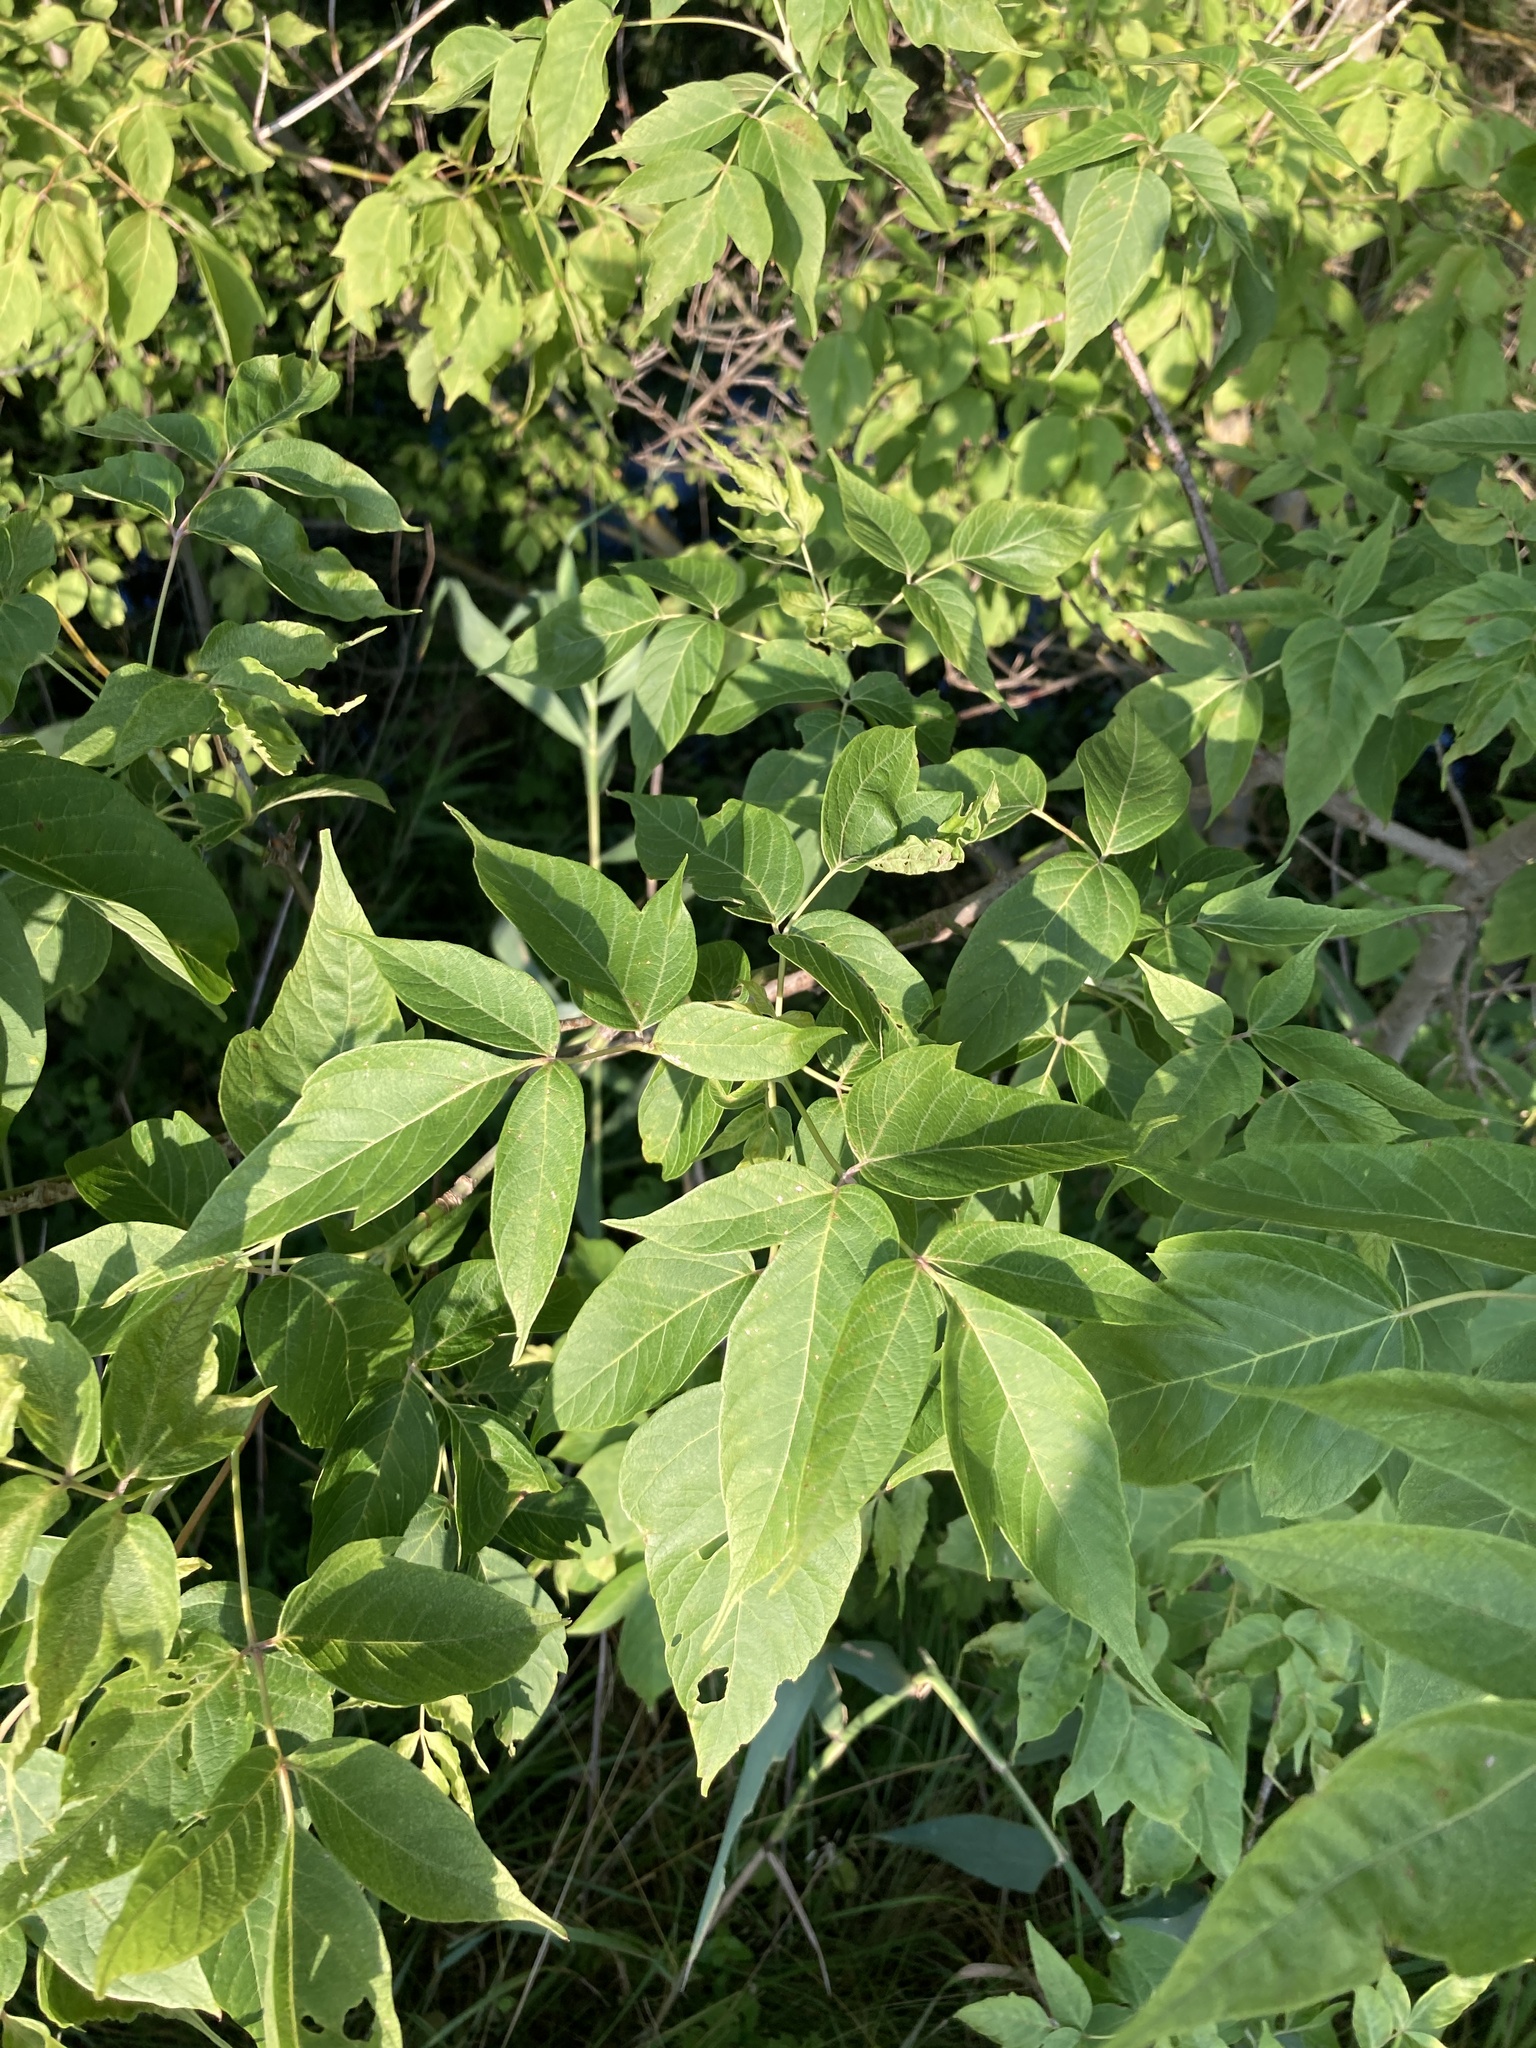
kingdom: Plantae
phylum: Tracheophyta
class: Magnoliopsida
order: Sapindales
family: Sapindaceae
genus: Acer
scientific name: Acer negundo
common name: Ashleaf maple
